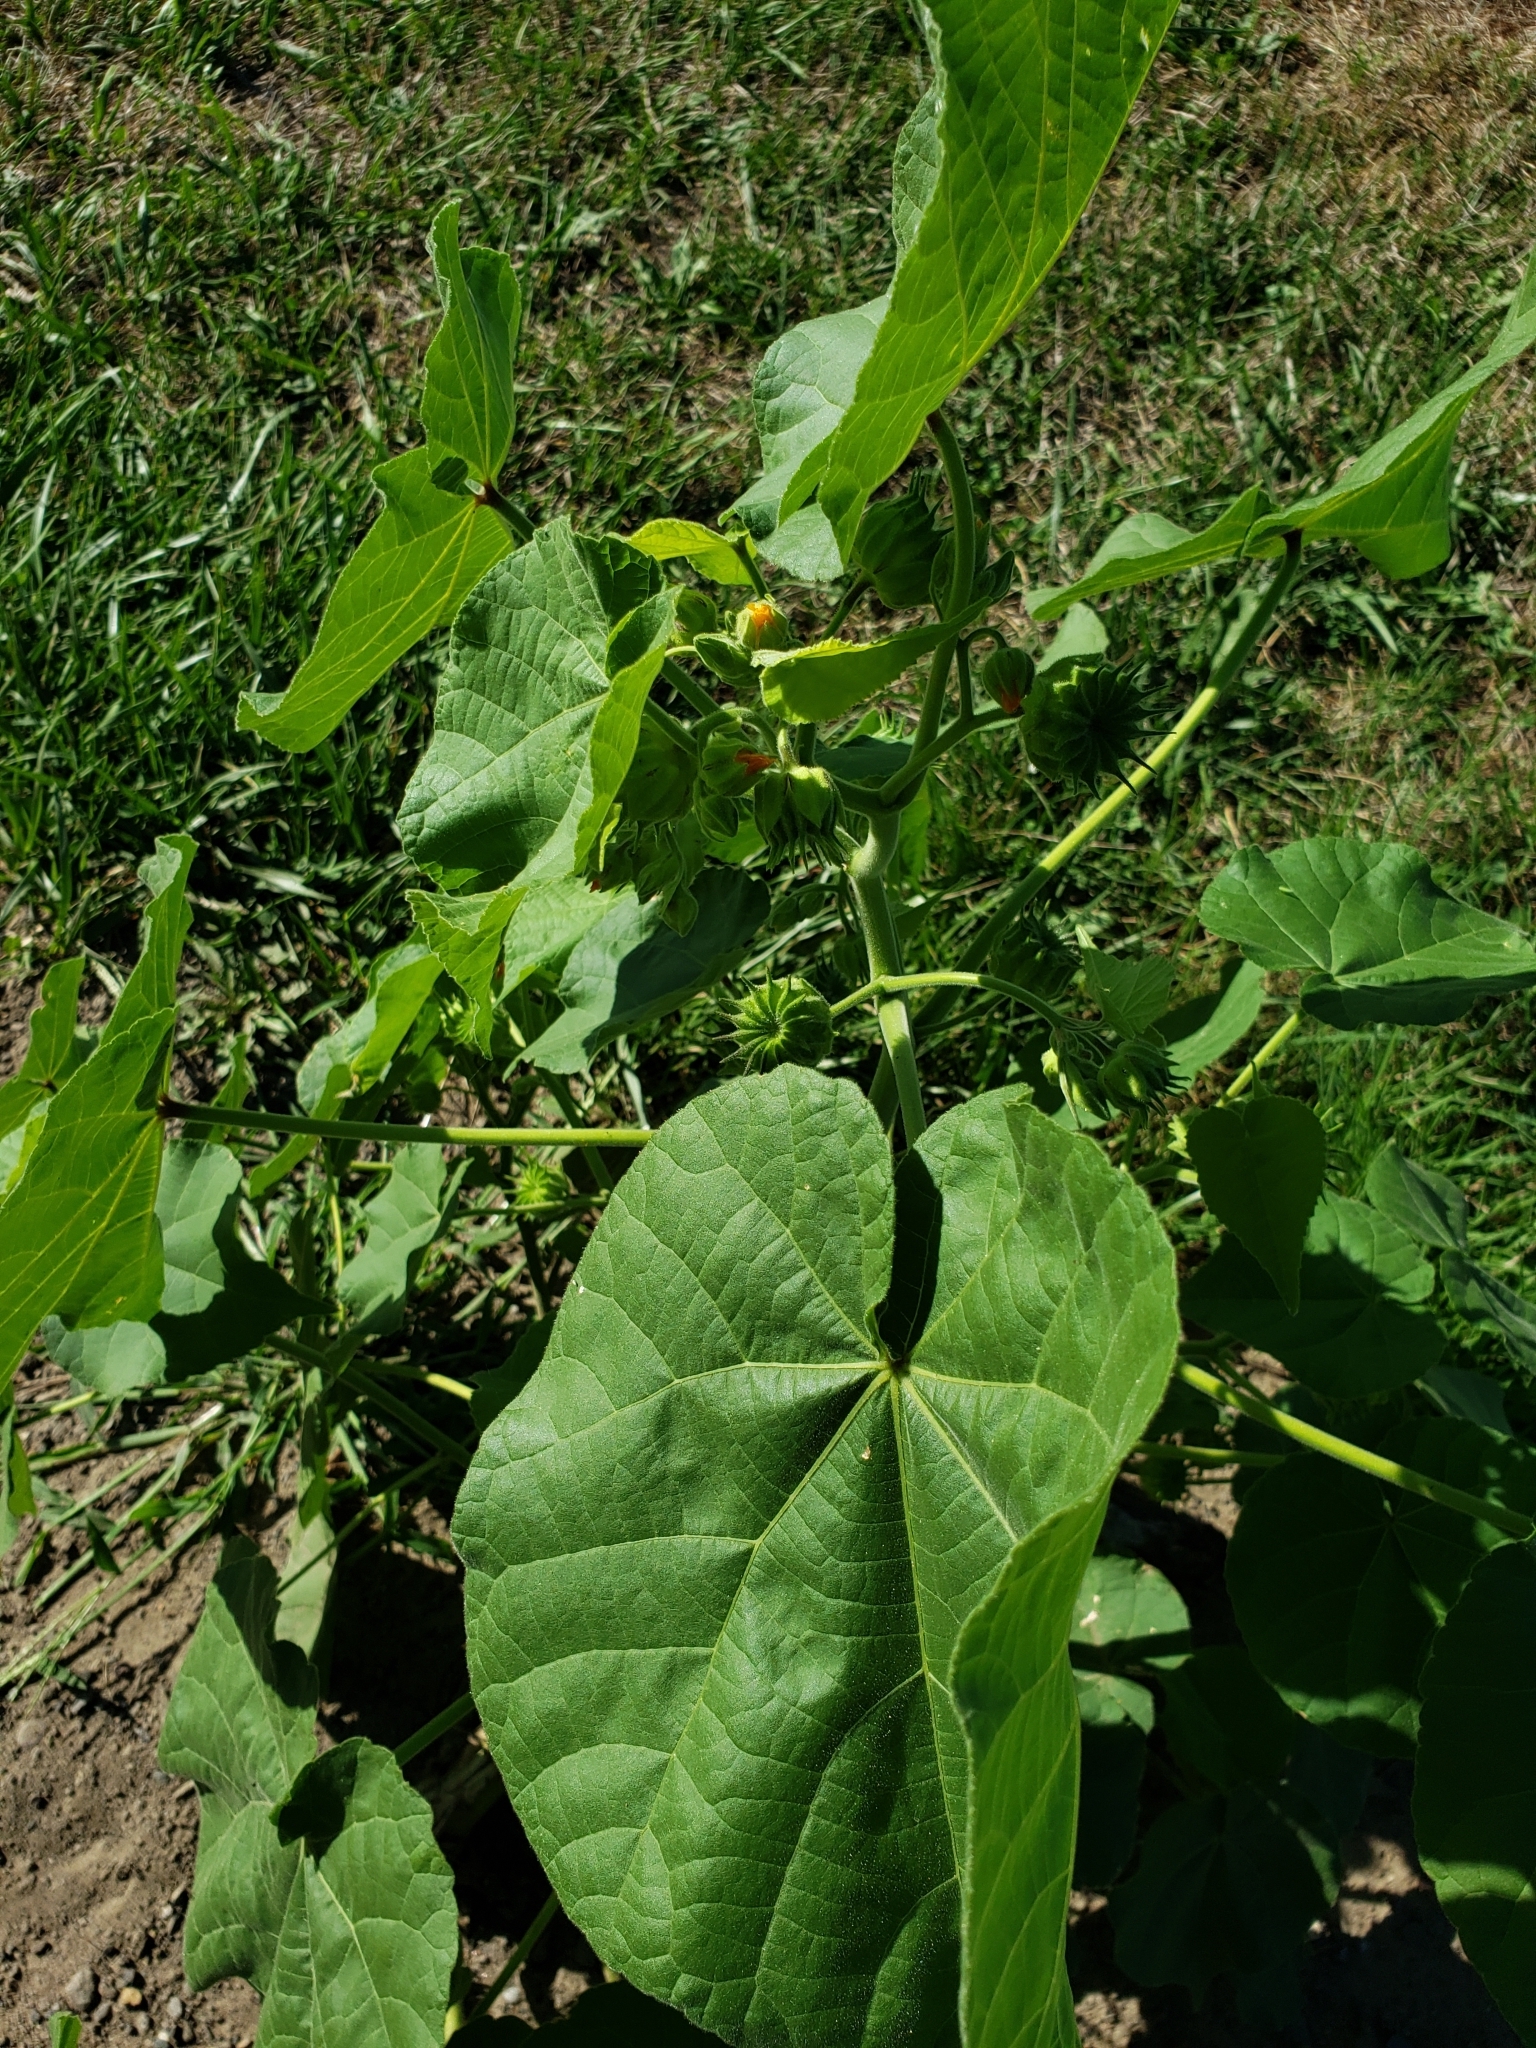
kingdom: Plantae
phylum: Tracheophyta
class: Magnoliopsida
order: Malvales
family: Malvaceae
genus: Abutilon
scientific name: Abutilon theophrasti
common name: Velvetleaf
